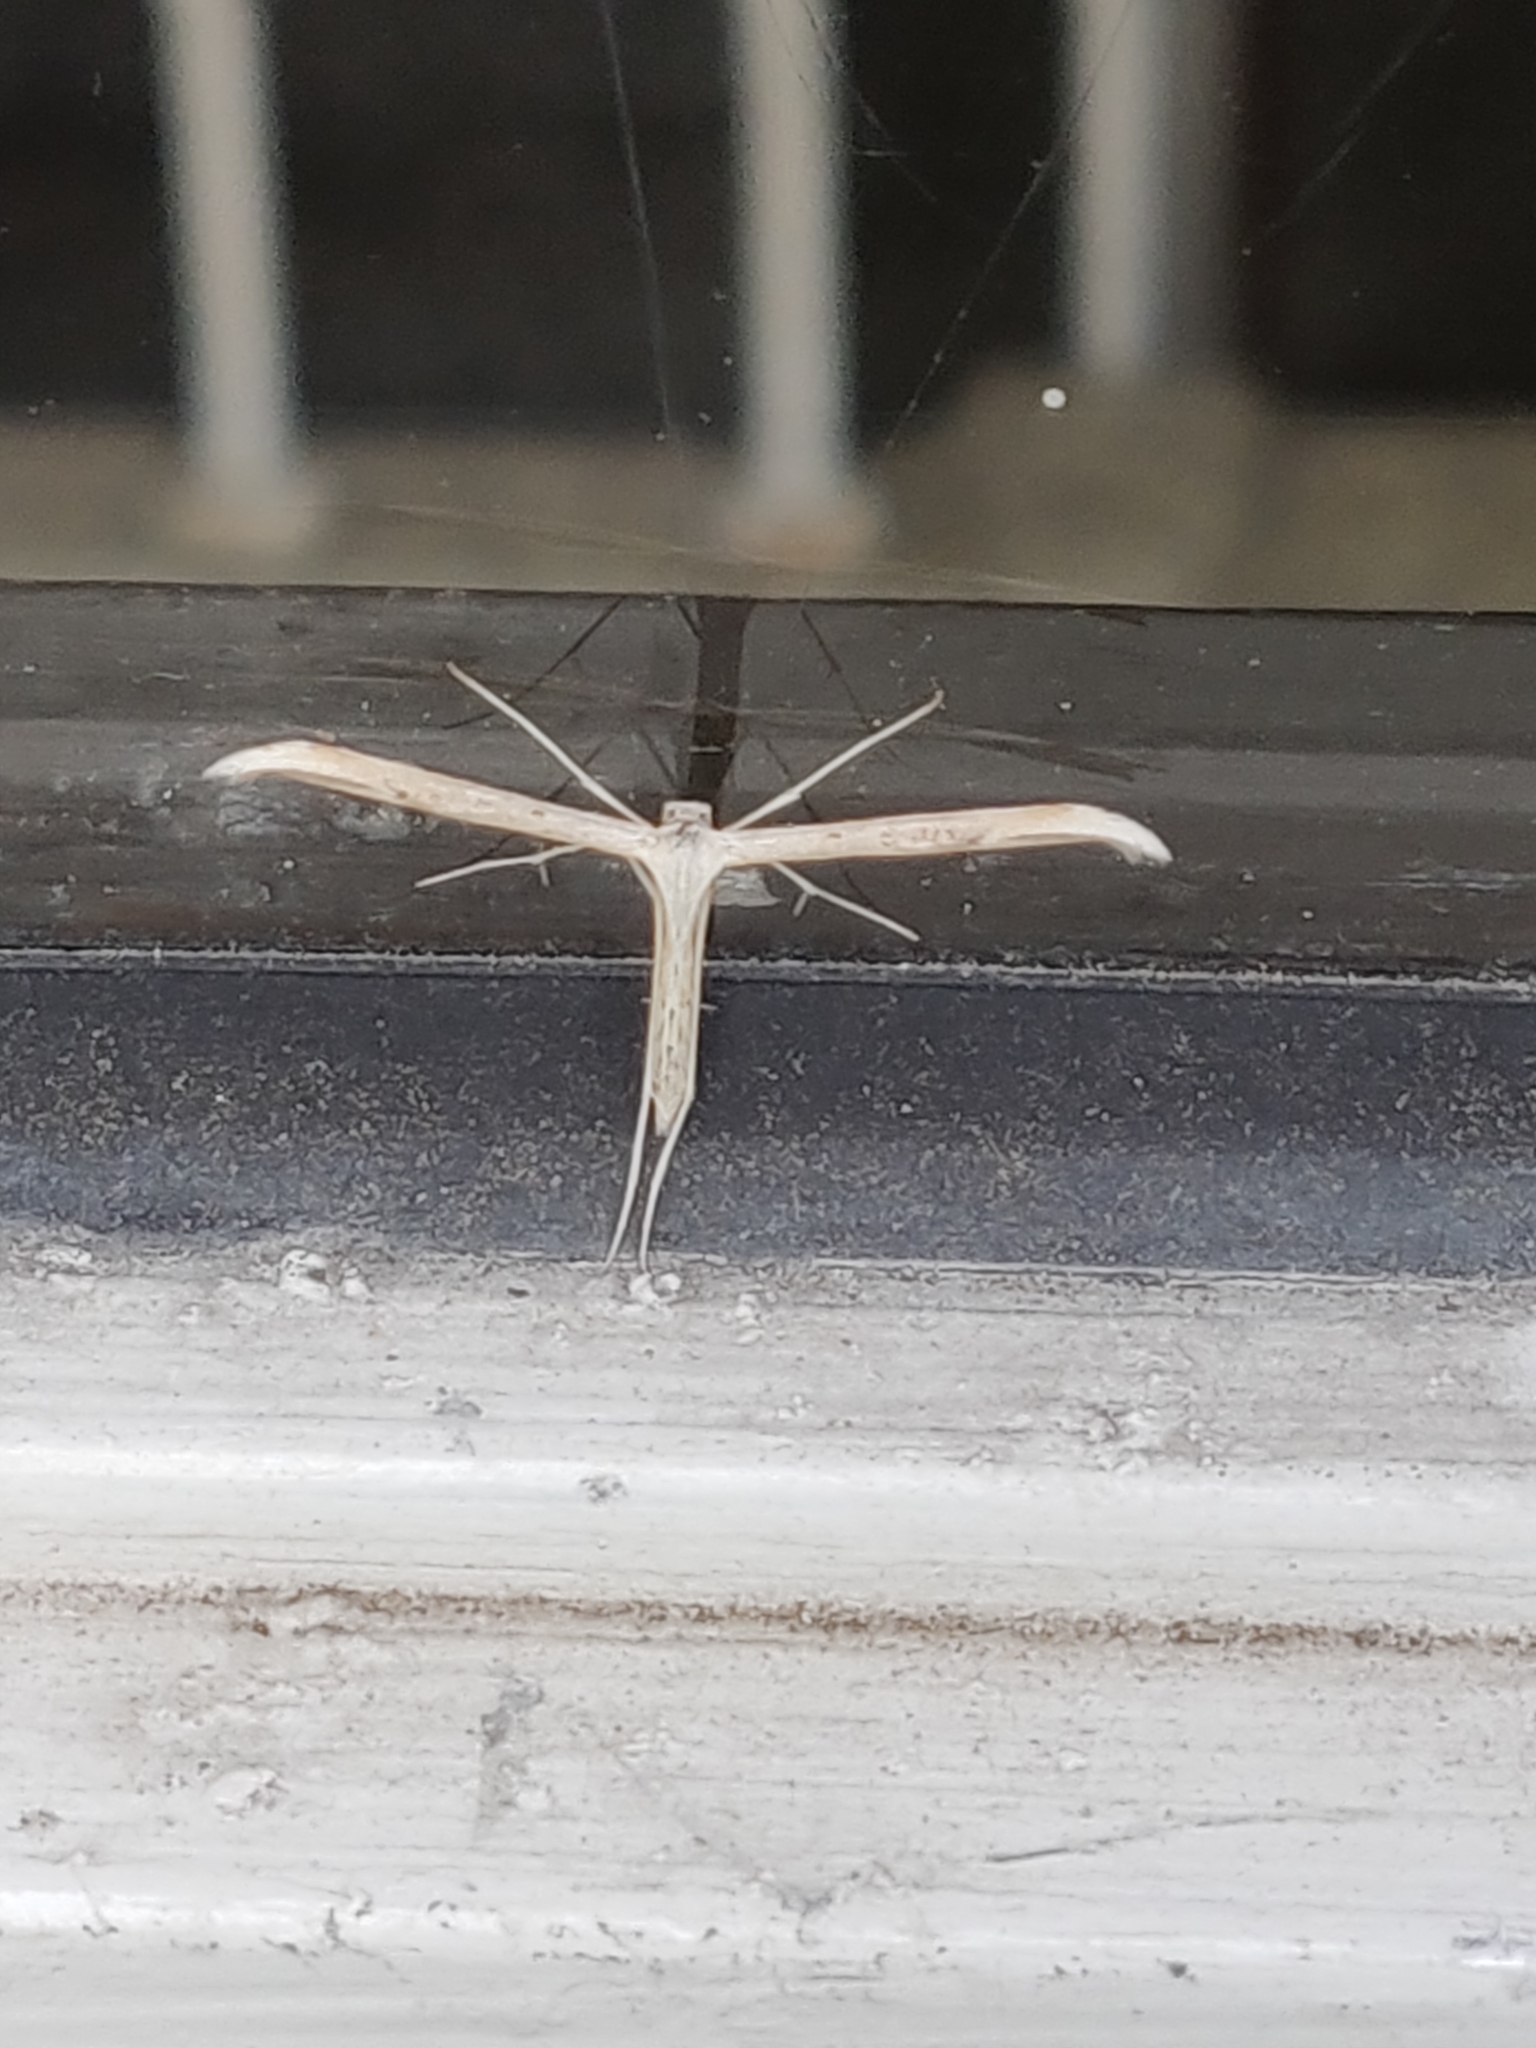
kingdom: Animalia
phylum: Arthropoda
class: Insecta
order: Lepidoptera
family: Pterophoridae
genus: Emmelina
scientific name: Emmelina monodactyla
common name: Common plume
